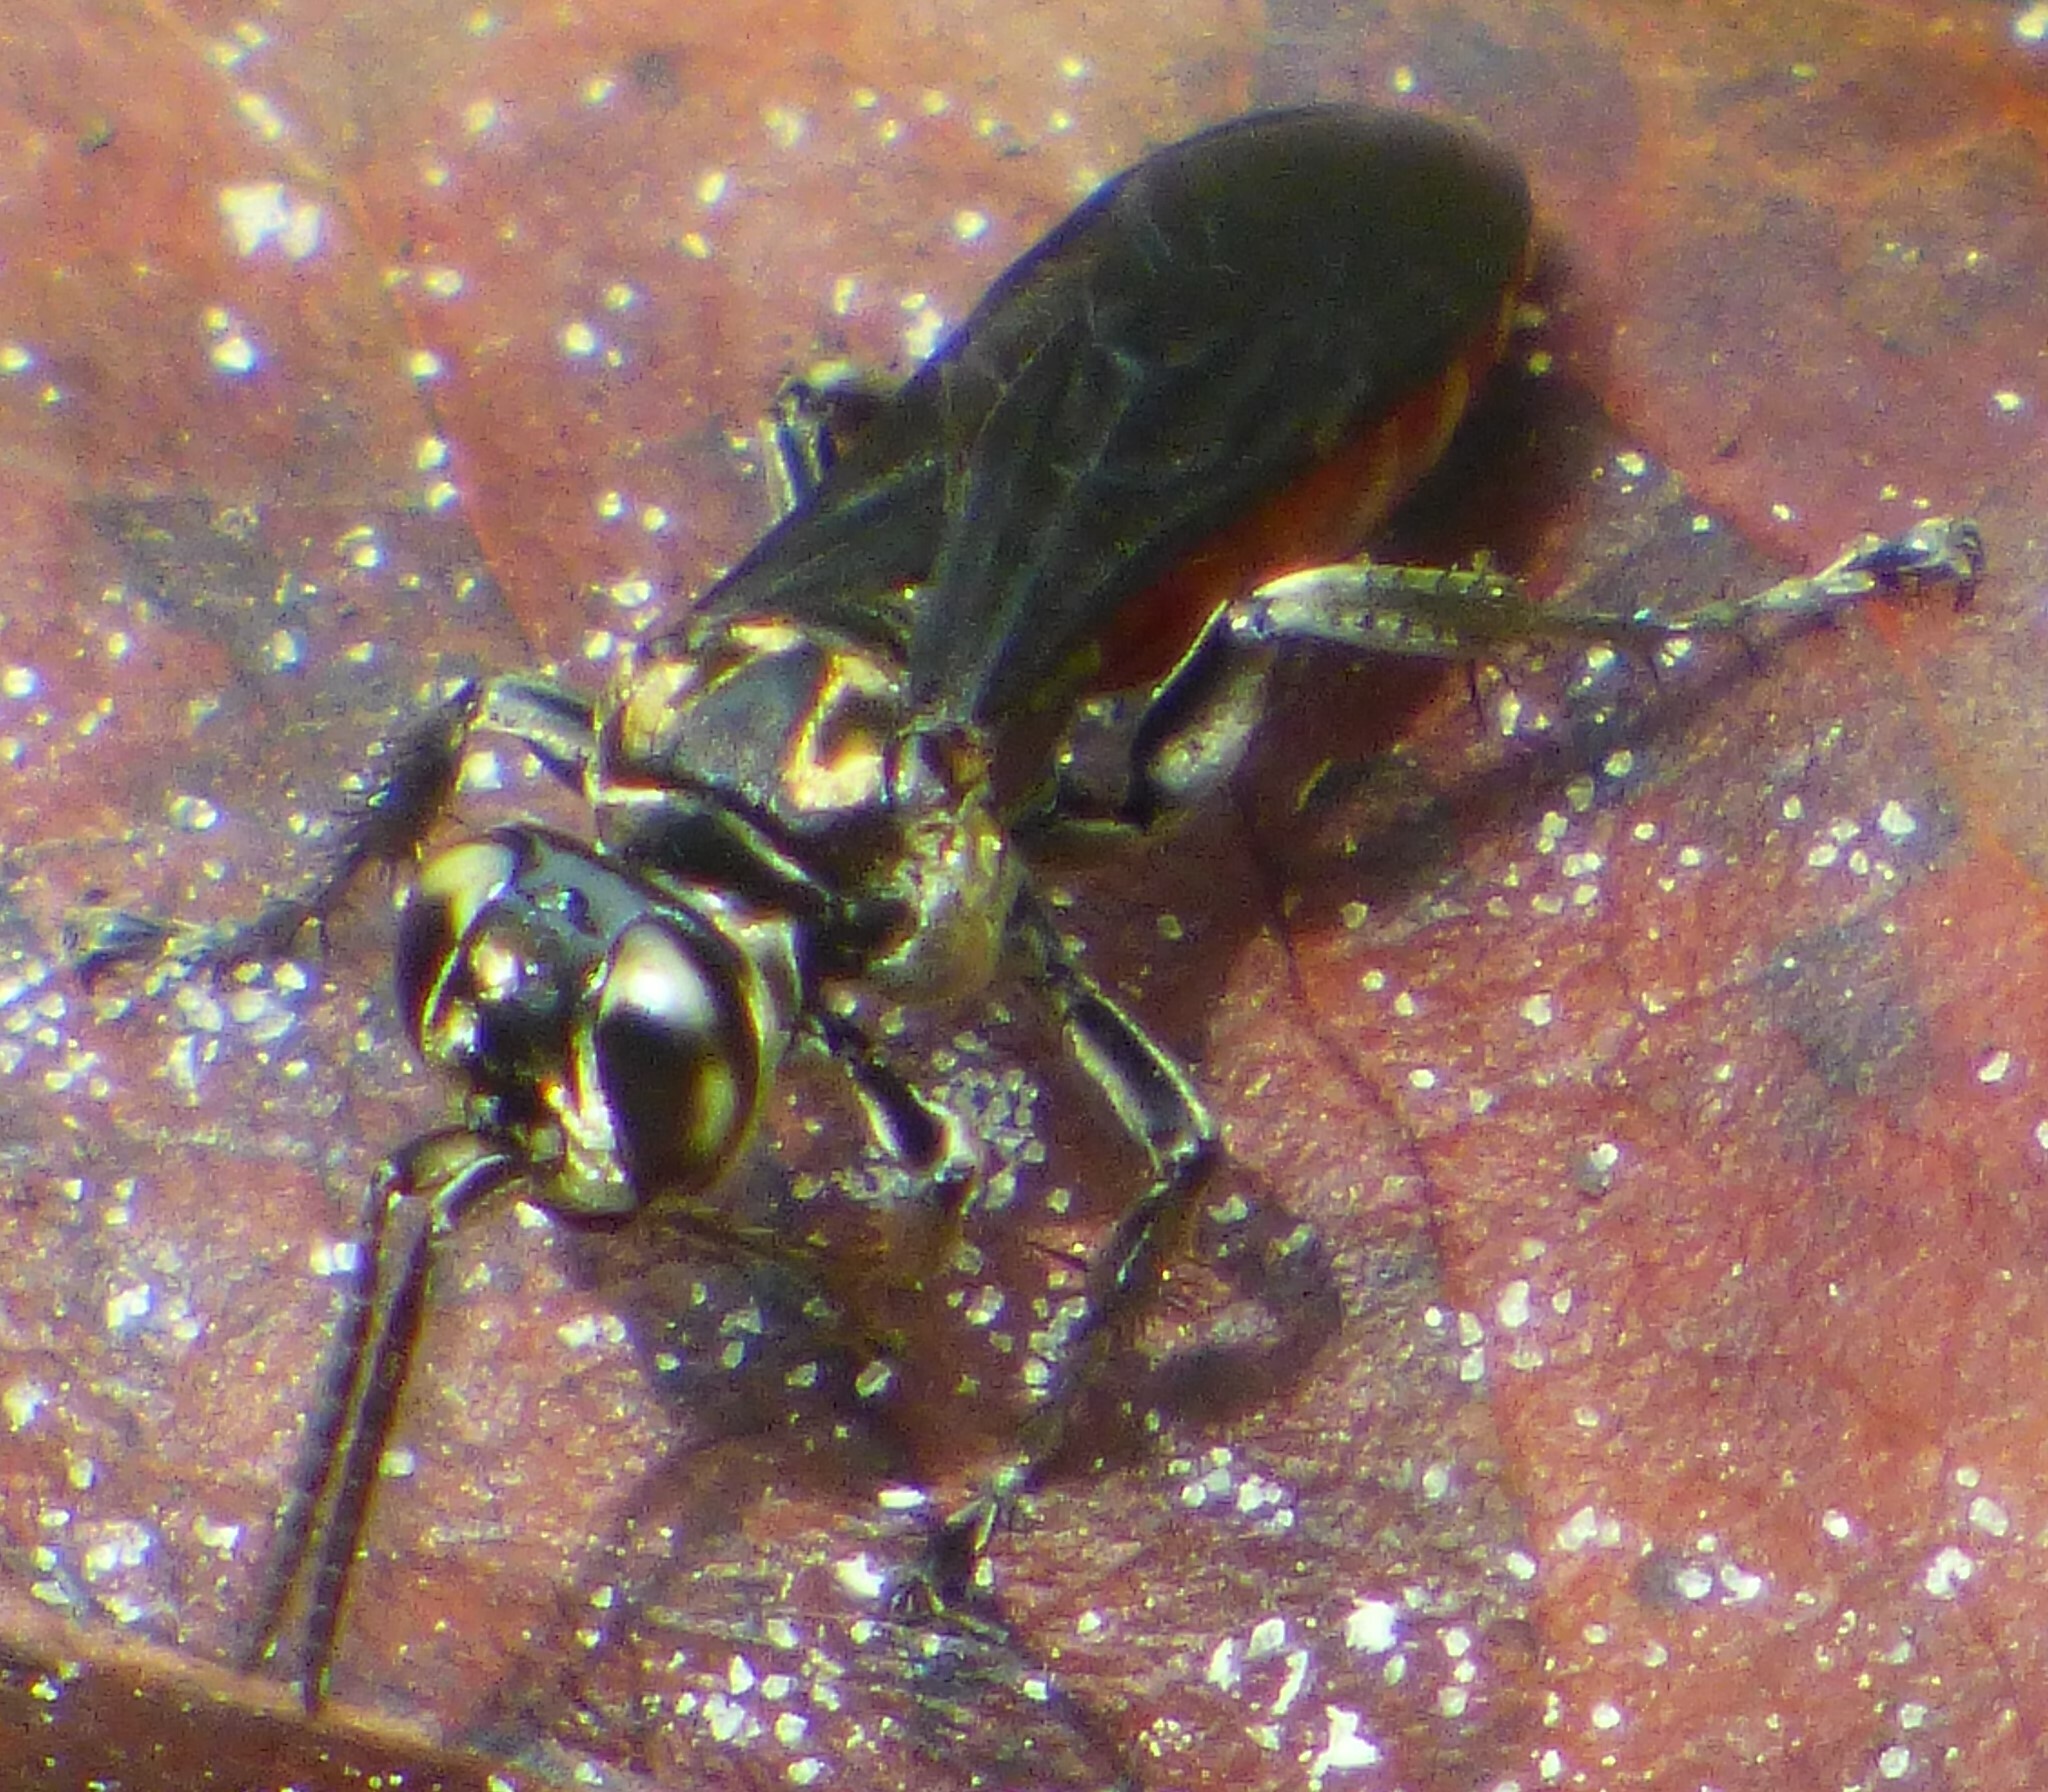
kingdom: Animalia
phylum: Arthropoda
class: Insecta
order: Hymenoptera
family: Crabronidae
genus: Larra
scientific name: Larra bicolor
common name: Wasp
